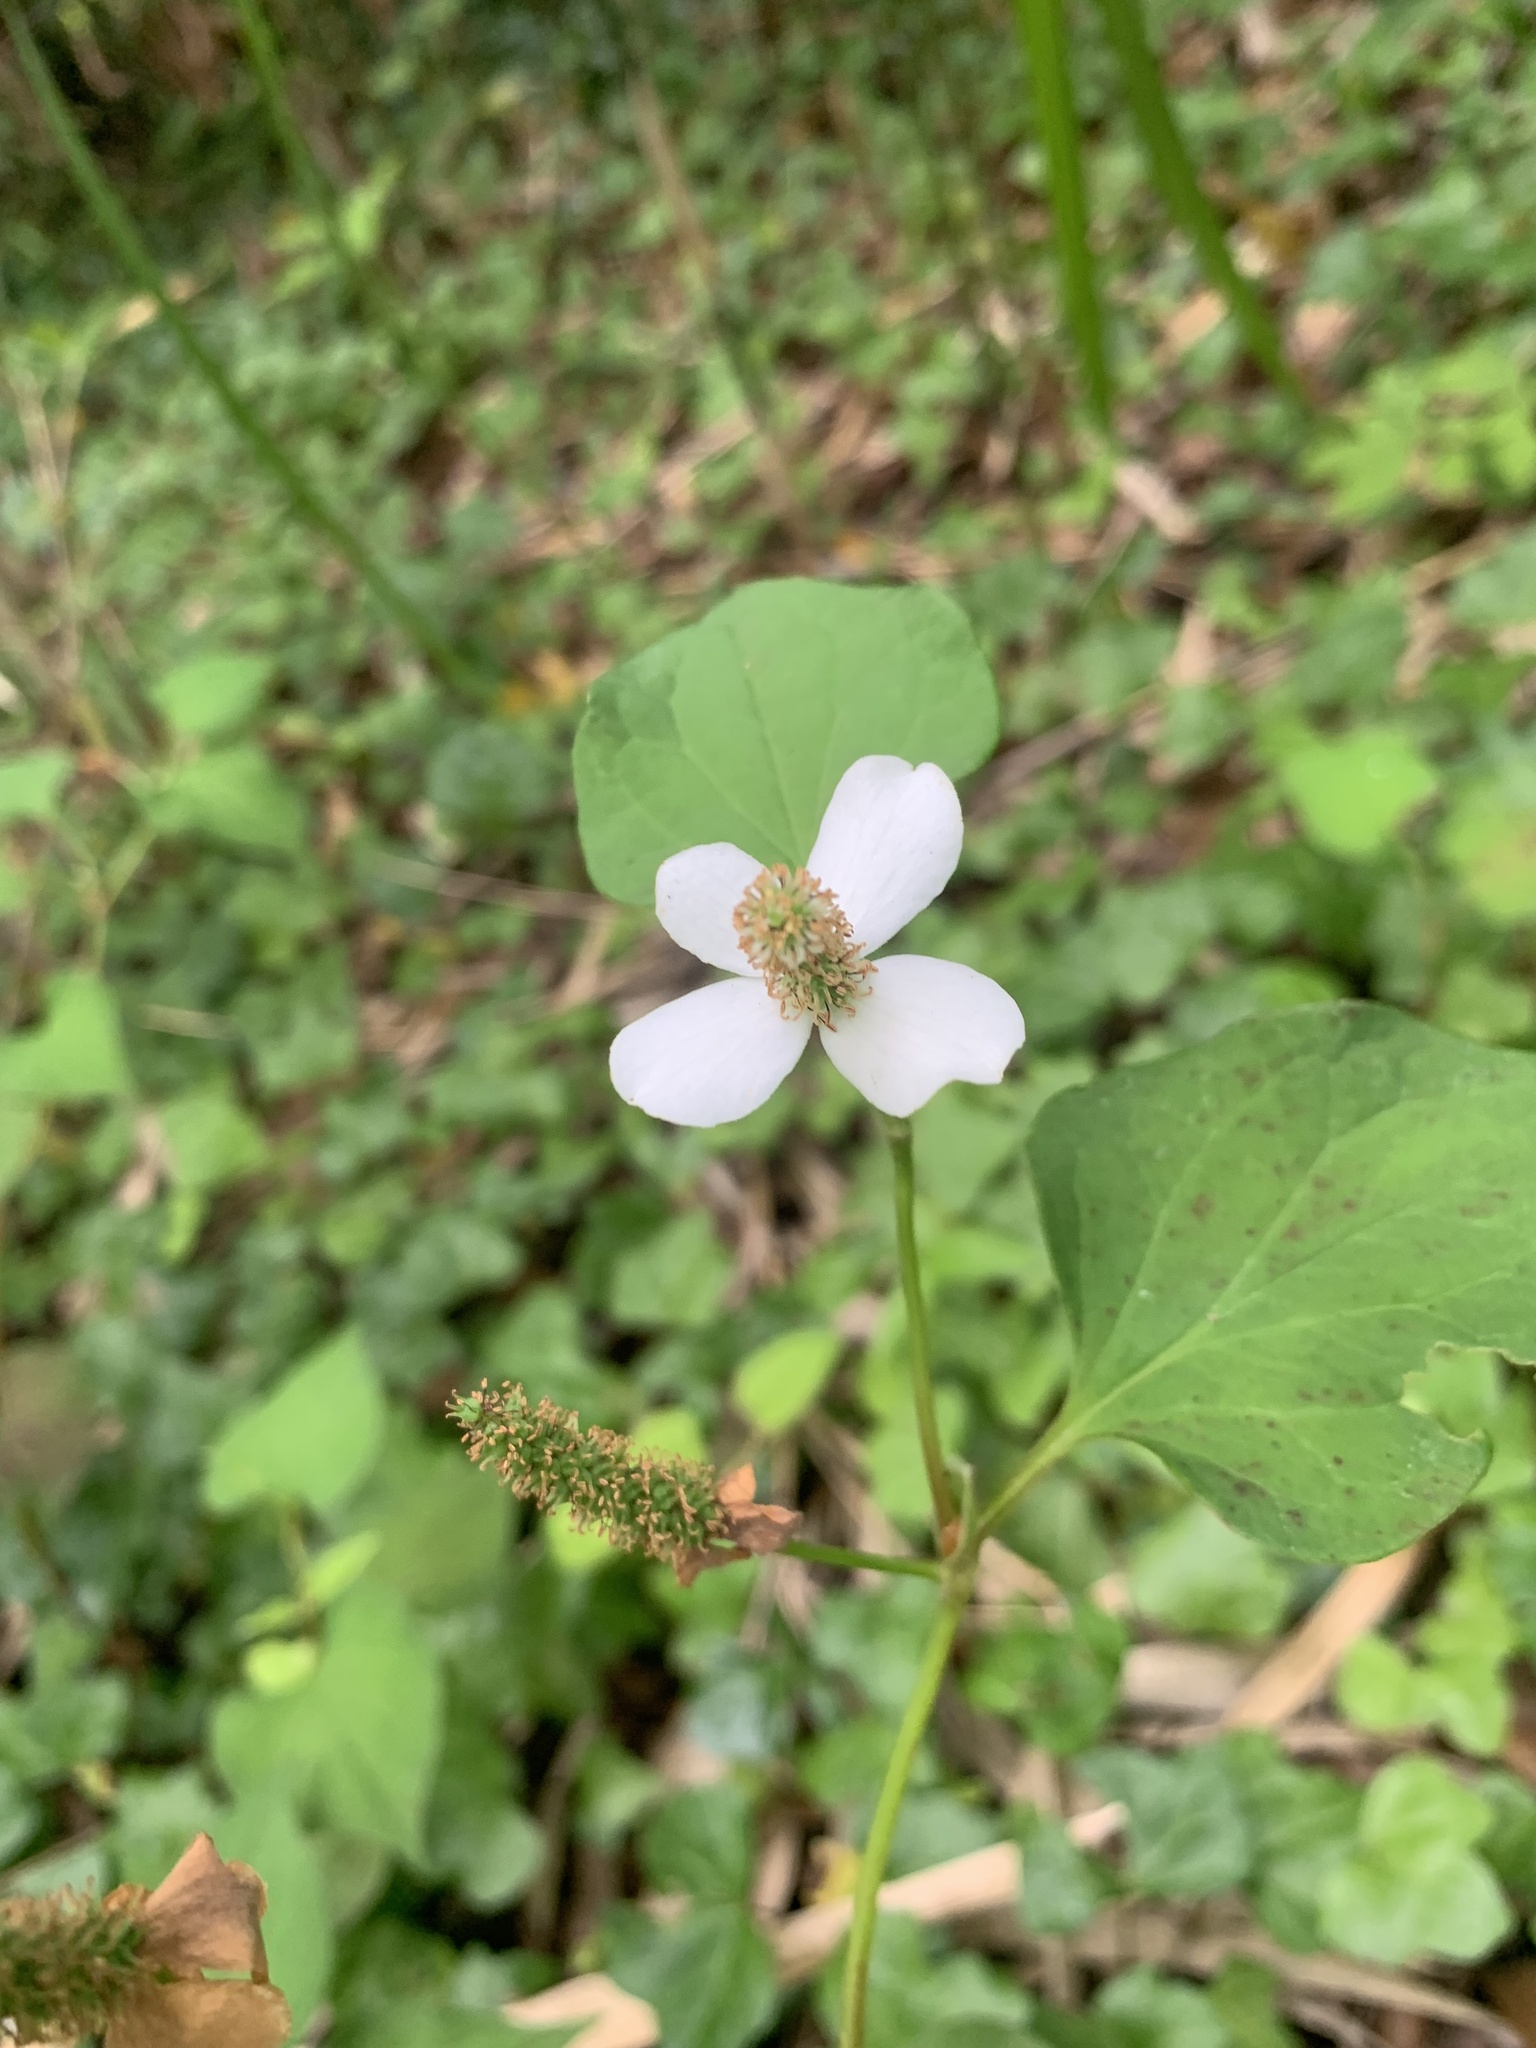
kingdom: Plantae
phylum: Tracheophyta
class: Magnoliopsida
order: Piperales
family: Saururaceae
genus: Houttuynia
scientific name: Houttuynia cordata
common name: Chameleon
